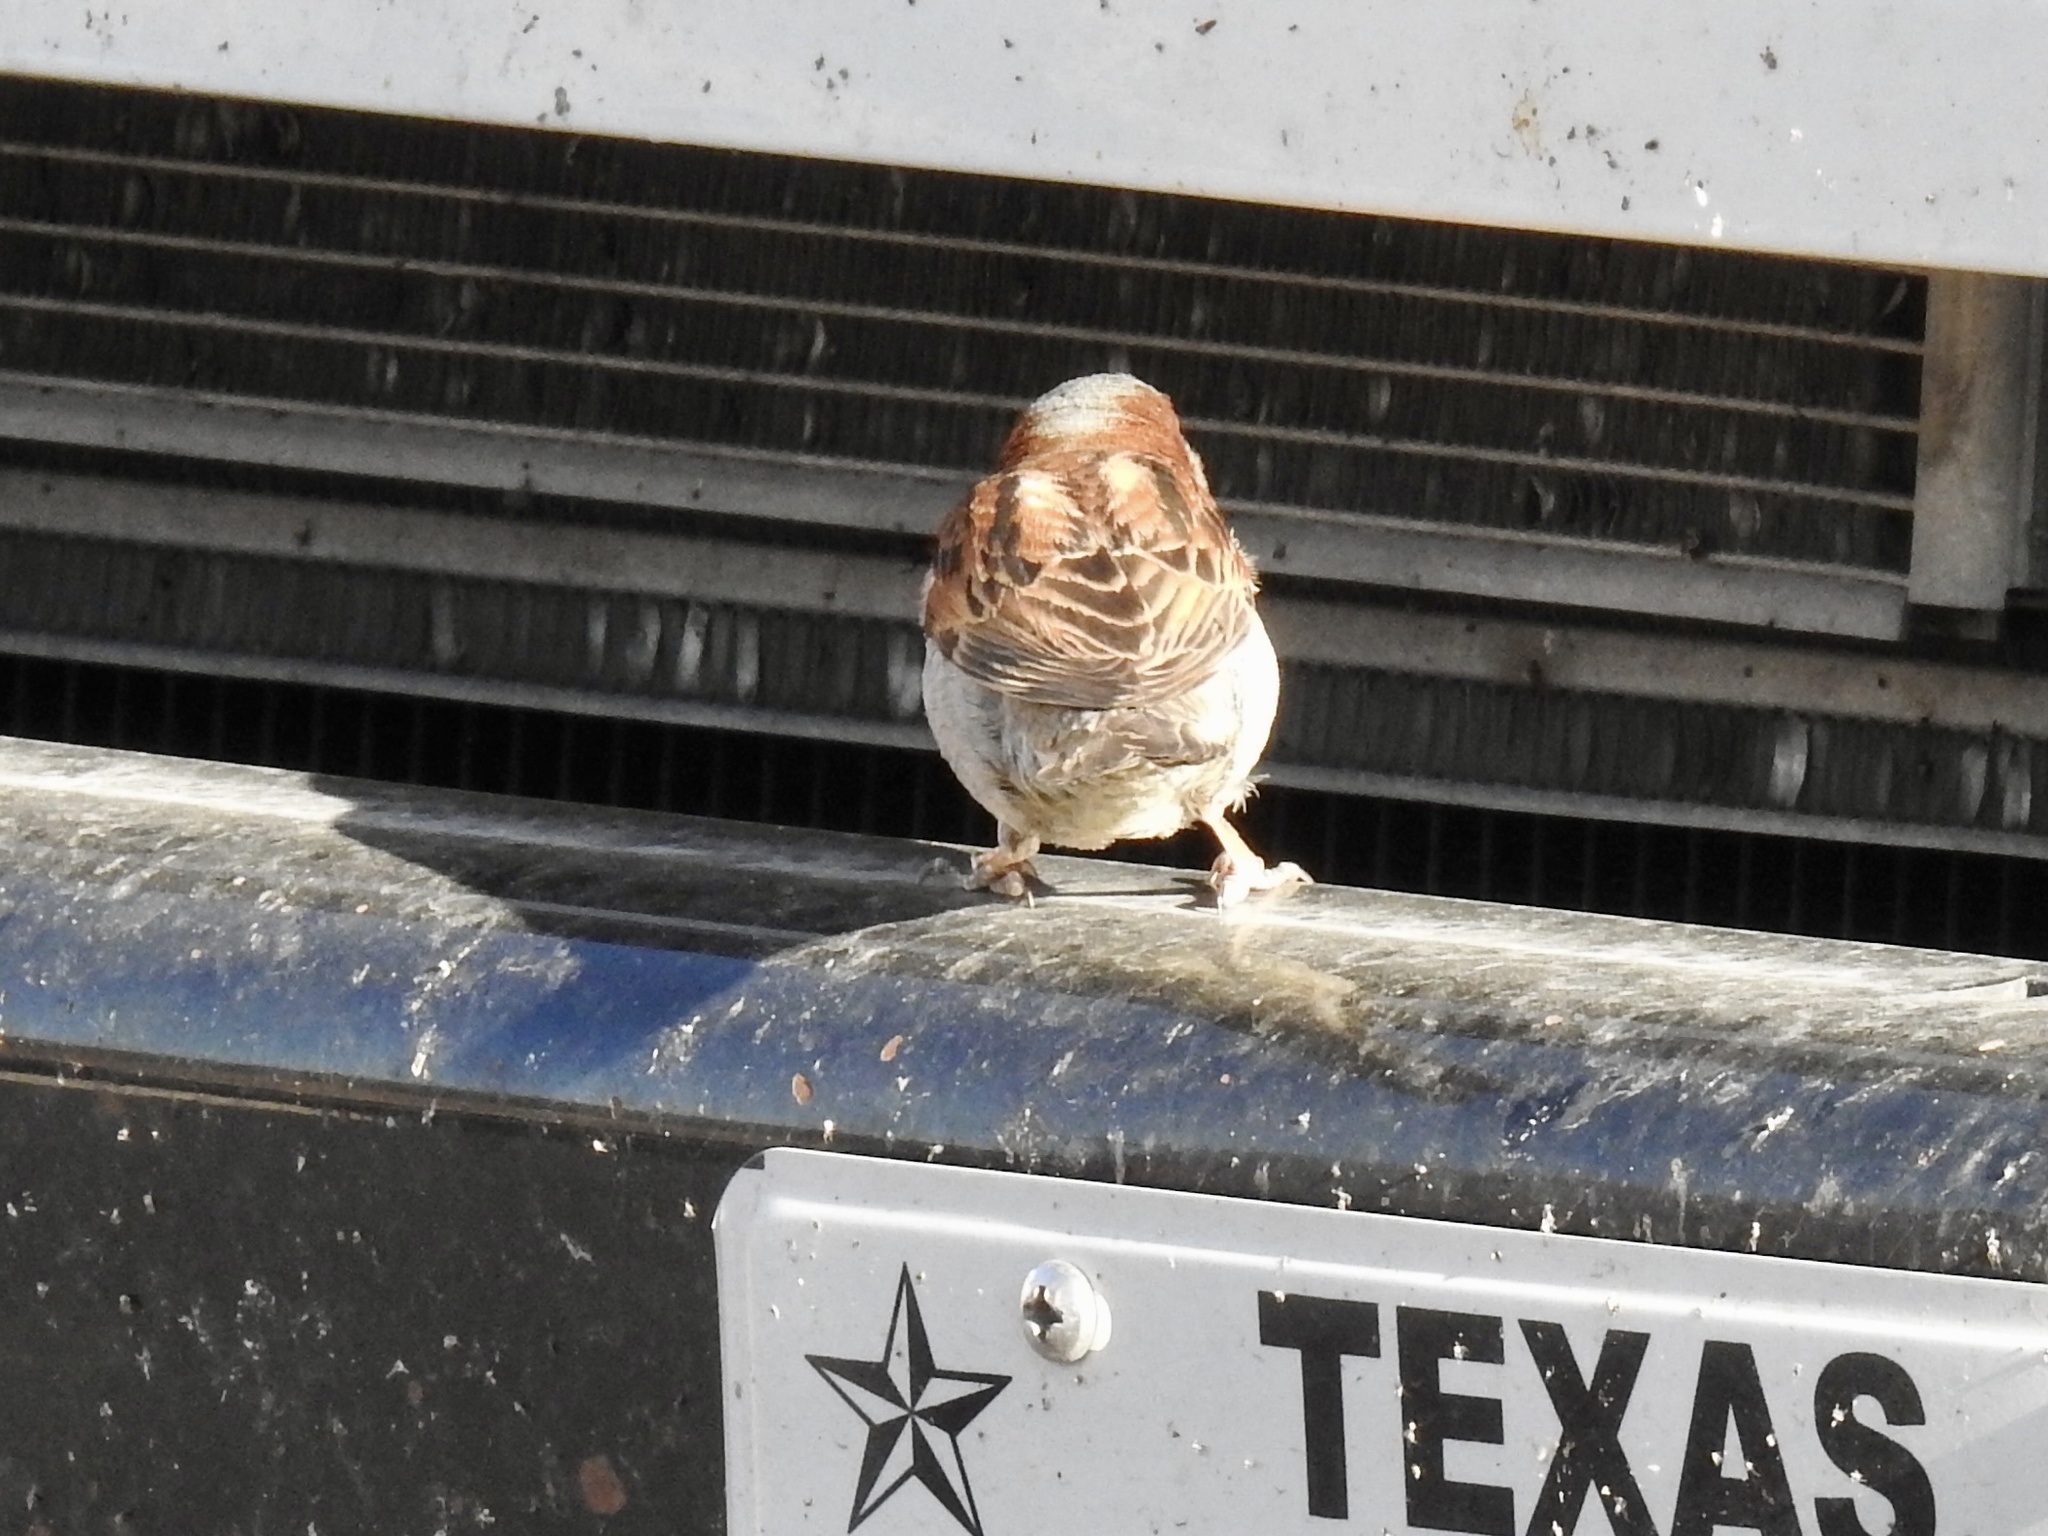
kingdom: Animalia
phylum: Chordata
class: Aves
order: Passeriformes
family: Passeridae
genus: Passer
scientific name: Passer domesticus
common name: House sparrow
